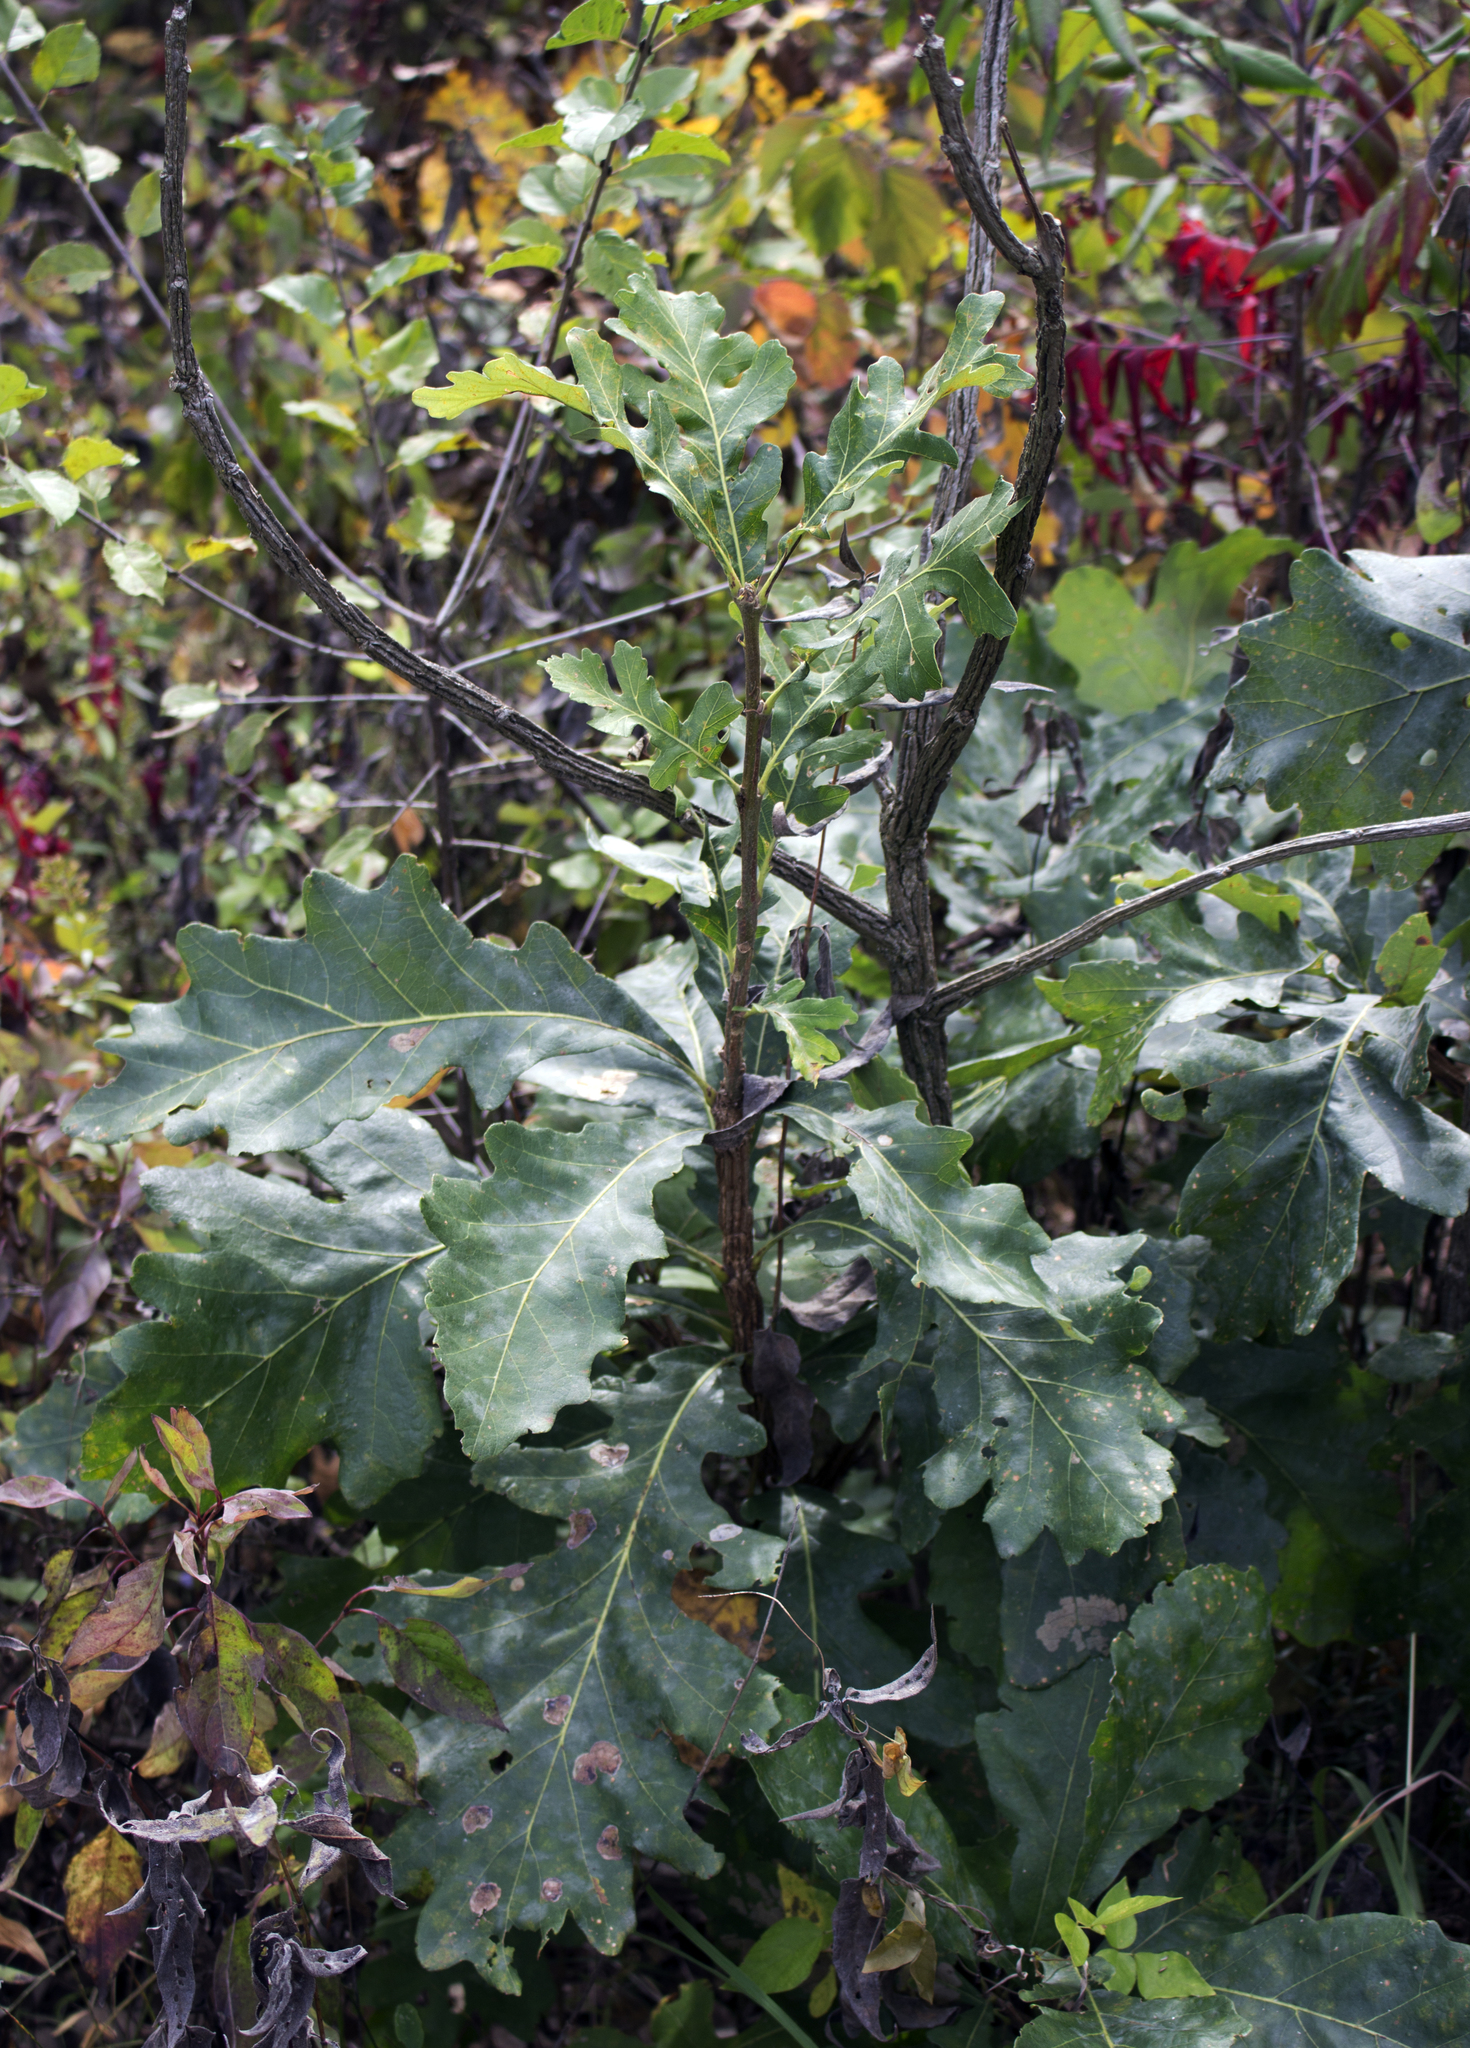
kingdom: Plantae
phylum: Tracheophyta
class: Magnoliopsida
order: Fagales
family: Fagaceae
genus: Quercus
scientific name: Quercus macrocarpa
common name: Bur oak
